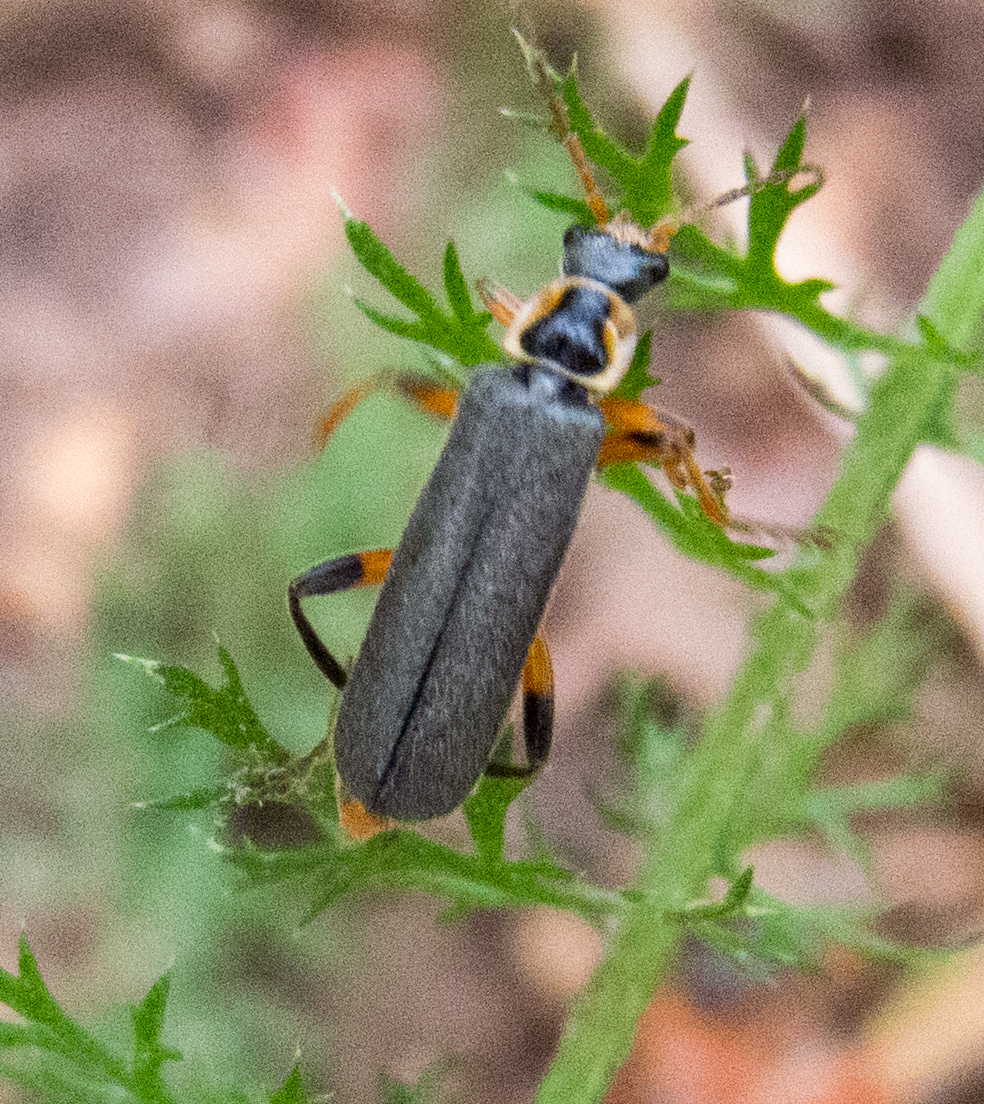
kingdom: Animalia
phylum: Arthropoda
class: Insecta
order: Coleoptera
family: Cantharidae
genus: Cantharis
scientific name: Cantharis nigricans
